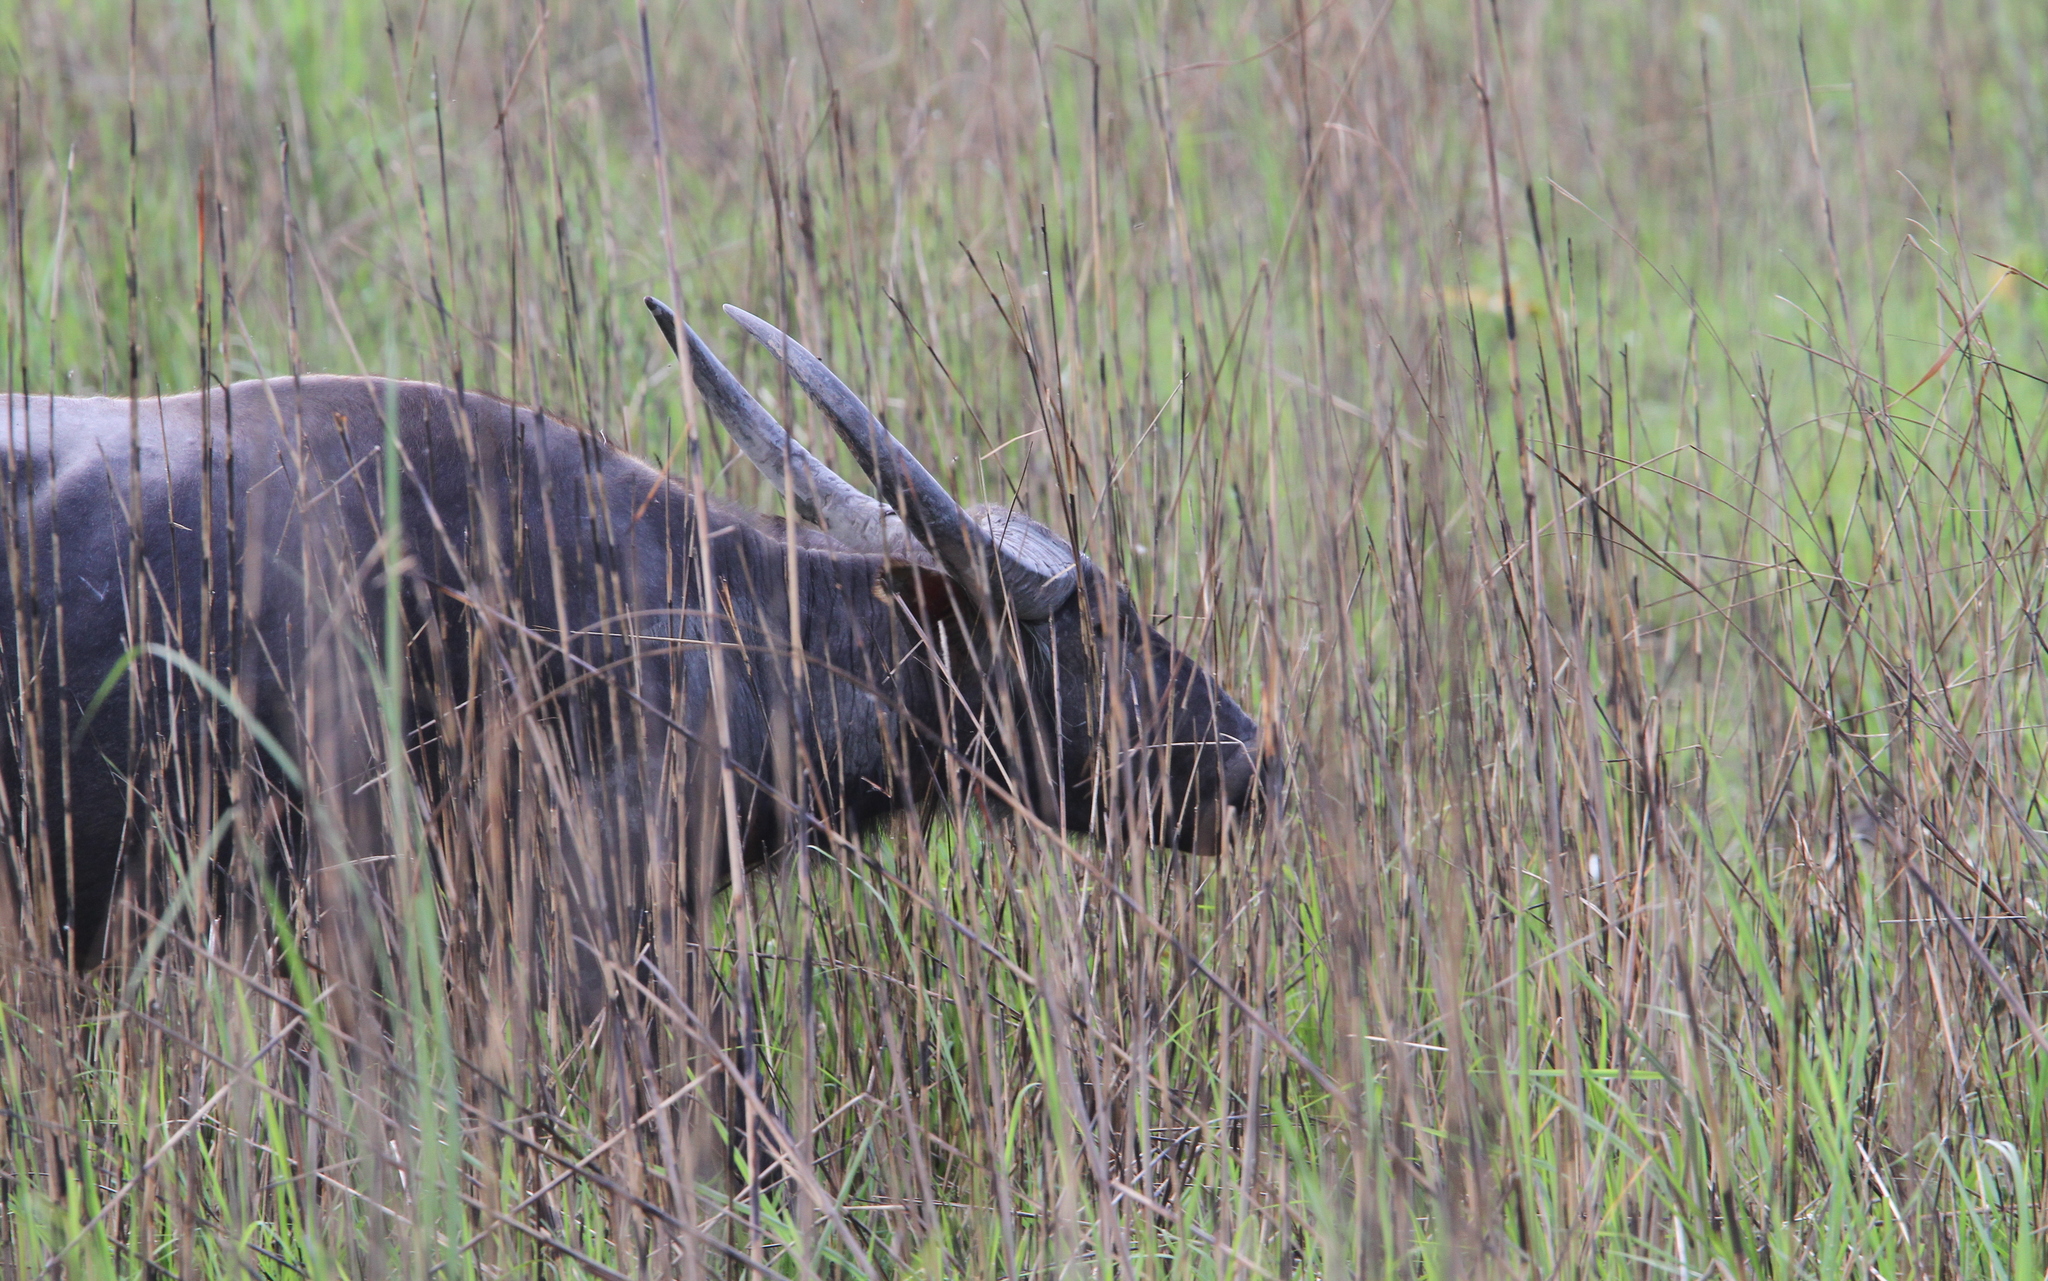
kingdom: Animalia
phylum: Chordata
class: Mammalia
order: Artiodactyla
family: Bovidae
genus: Bubalus
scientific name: Bubalus bubalis
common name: Water buffalo
